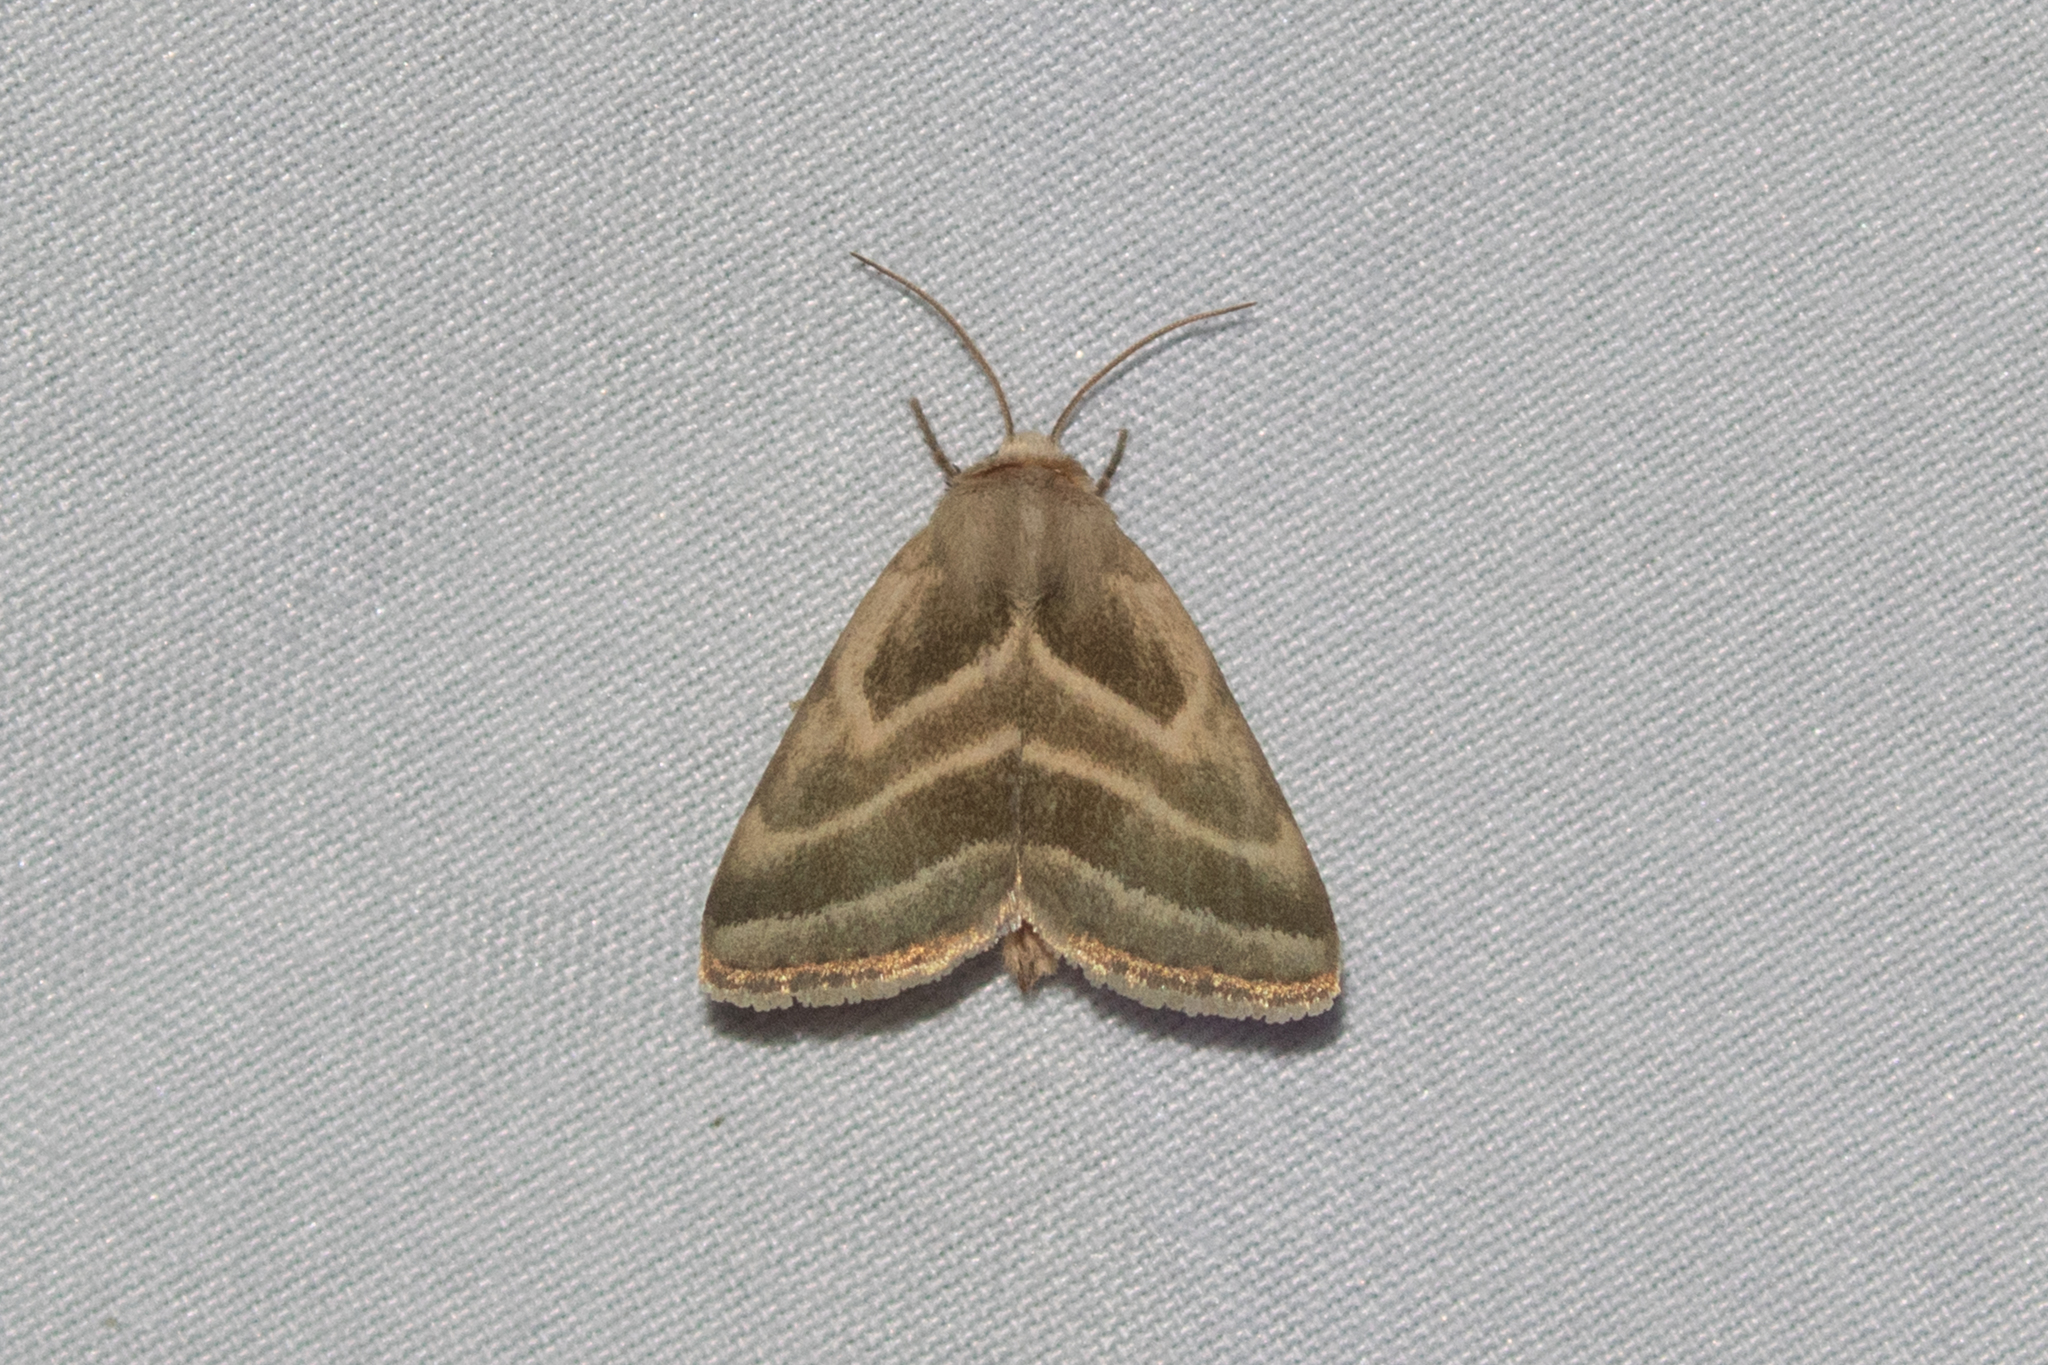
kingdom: Animalia
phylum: Arthropoda
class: Insecta
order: Lepidoptera
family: Noctuidae
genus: Schinia
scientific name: Schinia trifascia
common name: Three-lined flower moth
